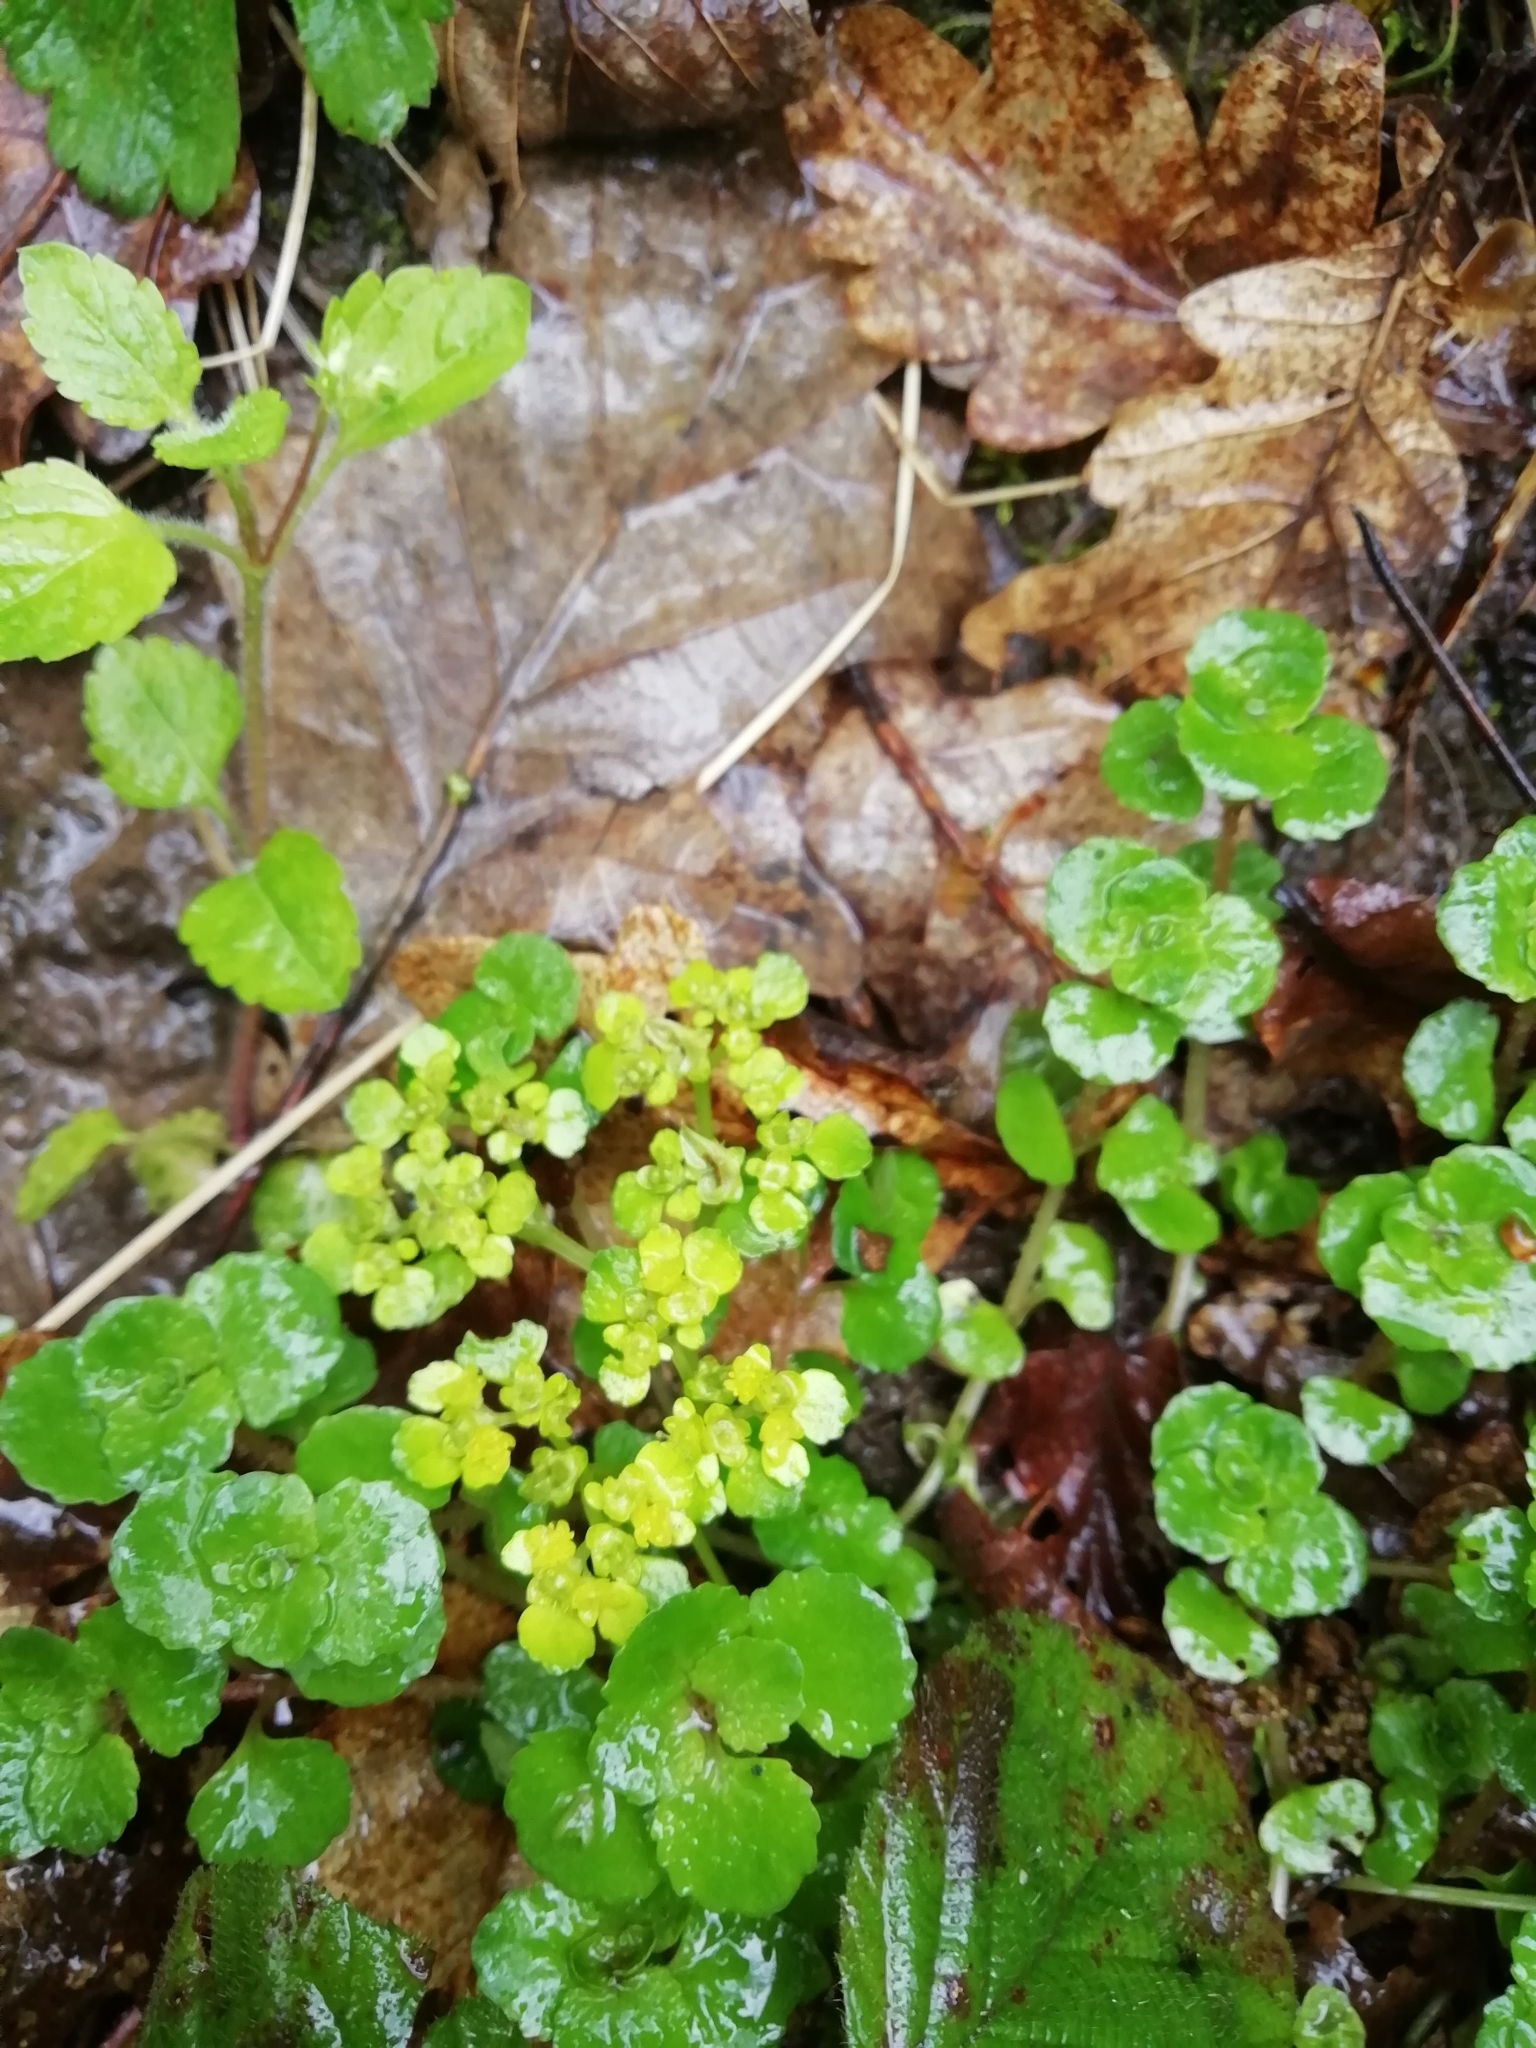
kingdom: Plantae
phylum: Tracheophyta
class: Magnoliopsida
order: Saxifragales
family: Saxifragaceae
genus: Chrysosplenium
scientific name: Chrysosplenium oppositifolium
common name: Opposite-leaved golden-saxifrage
